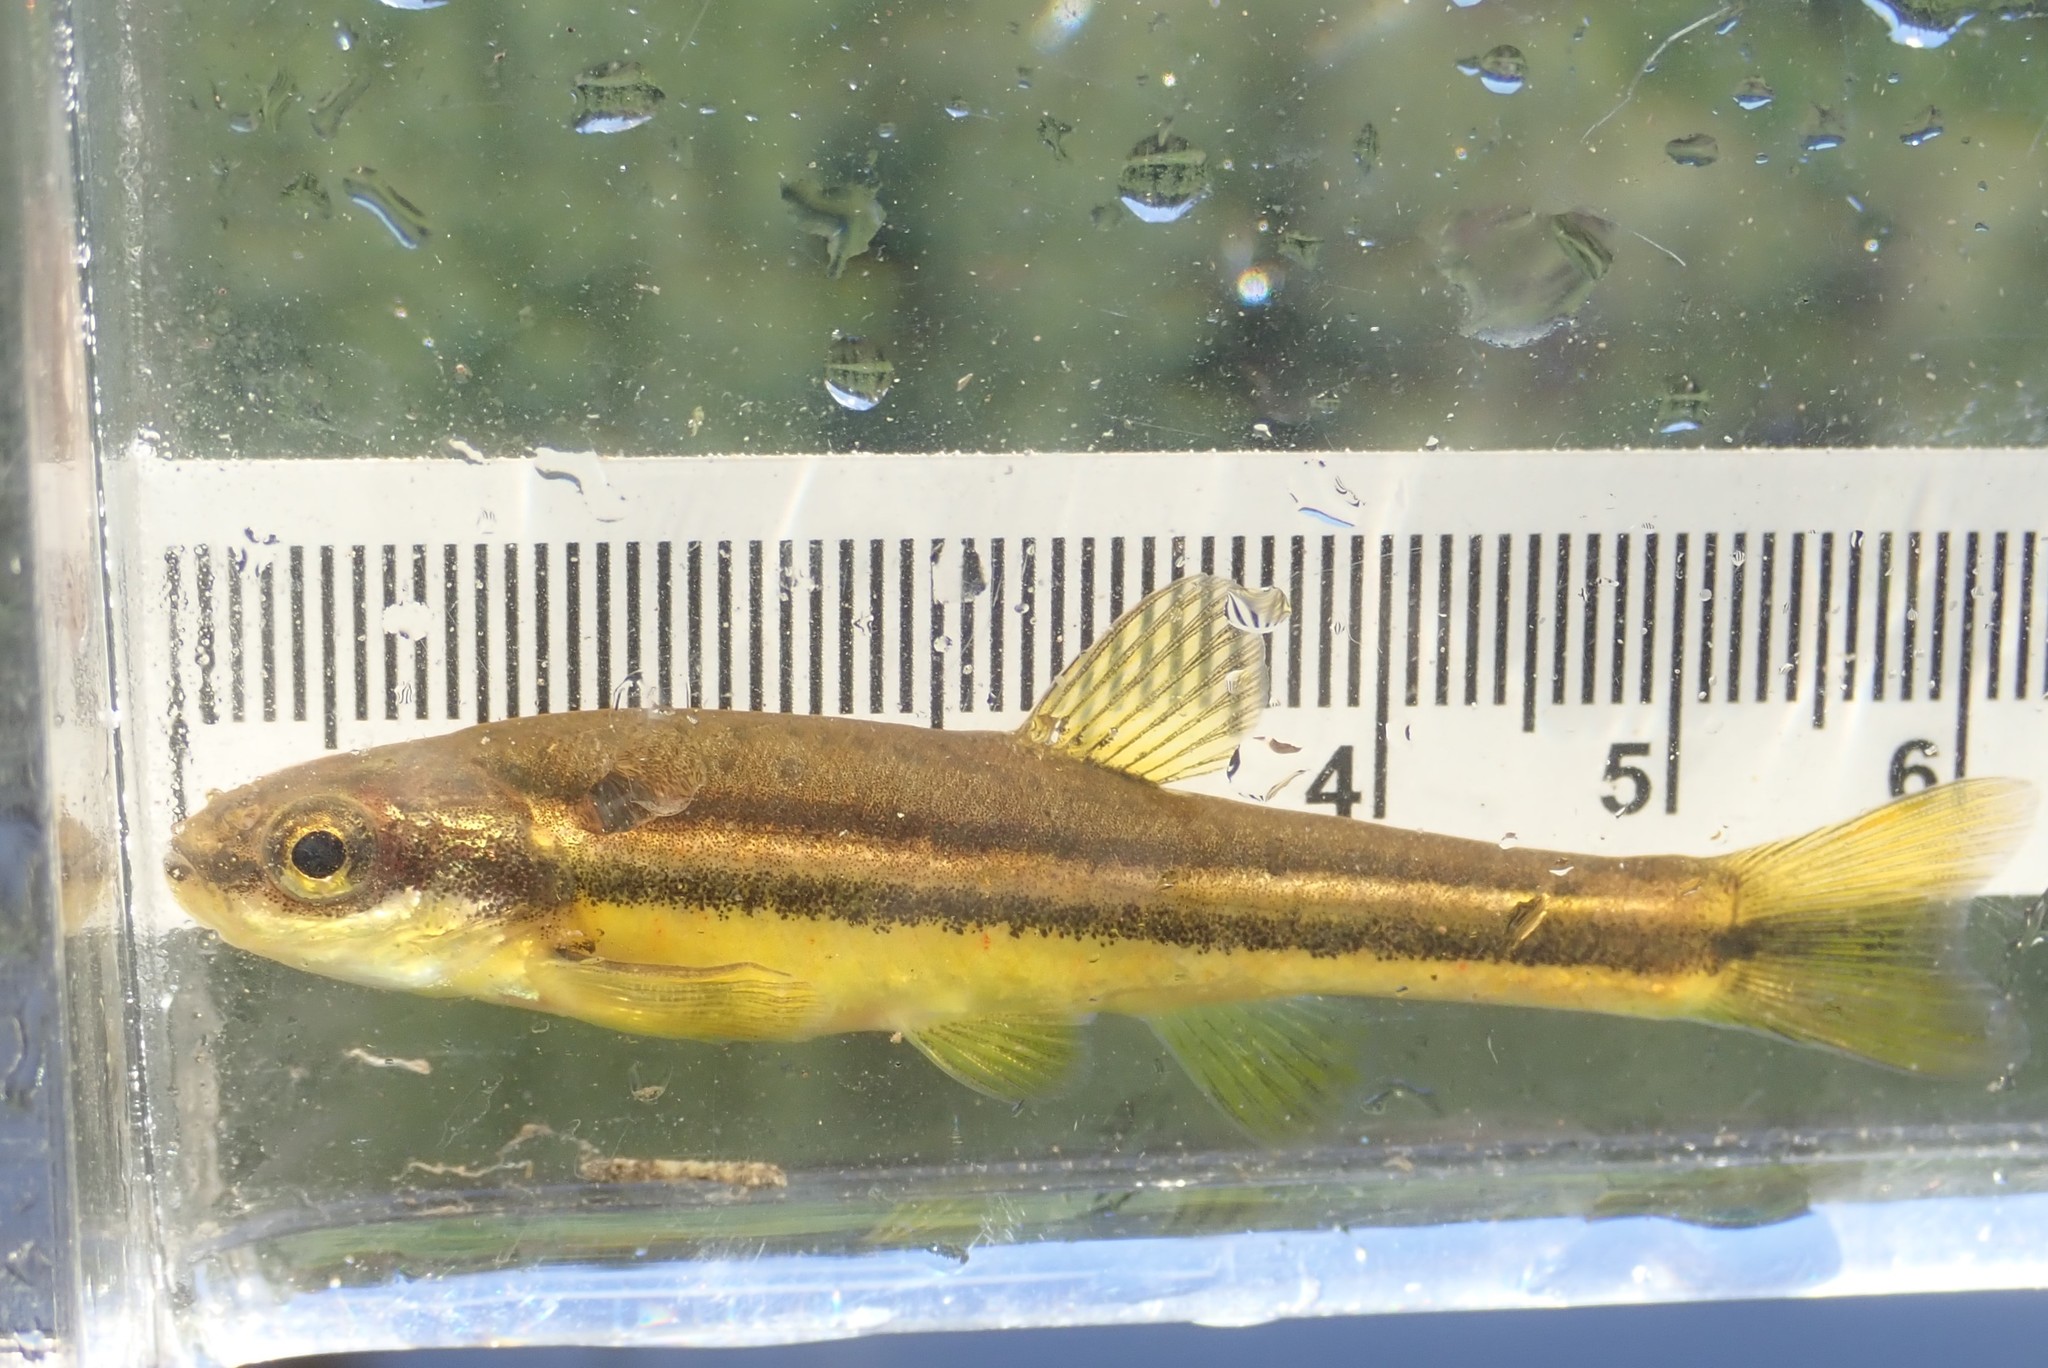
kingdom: Animalia
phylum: Chordata
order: Cypriniformes
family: Cyprinidae
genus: Chrosomus
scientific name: Chrosomus eos
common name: Northern redbelly dace
